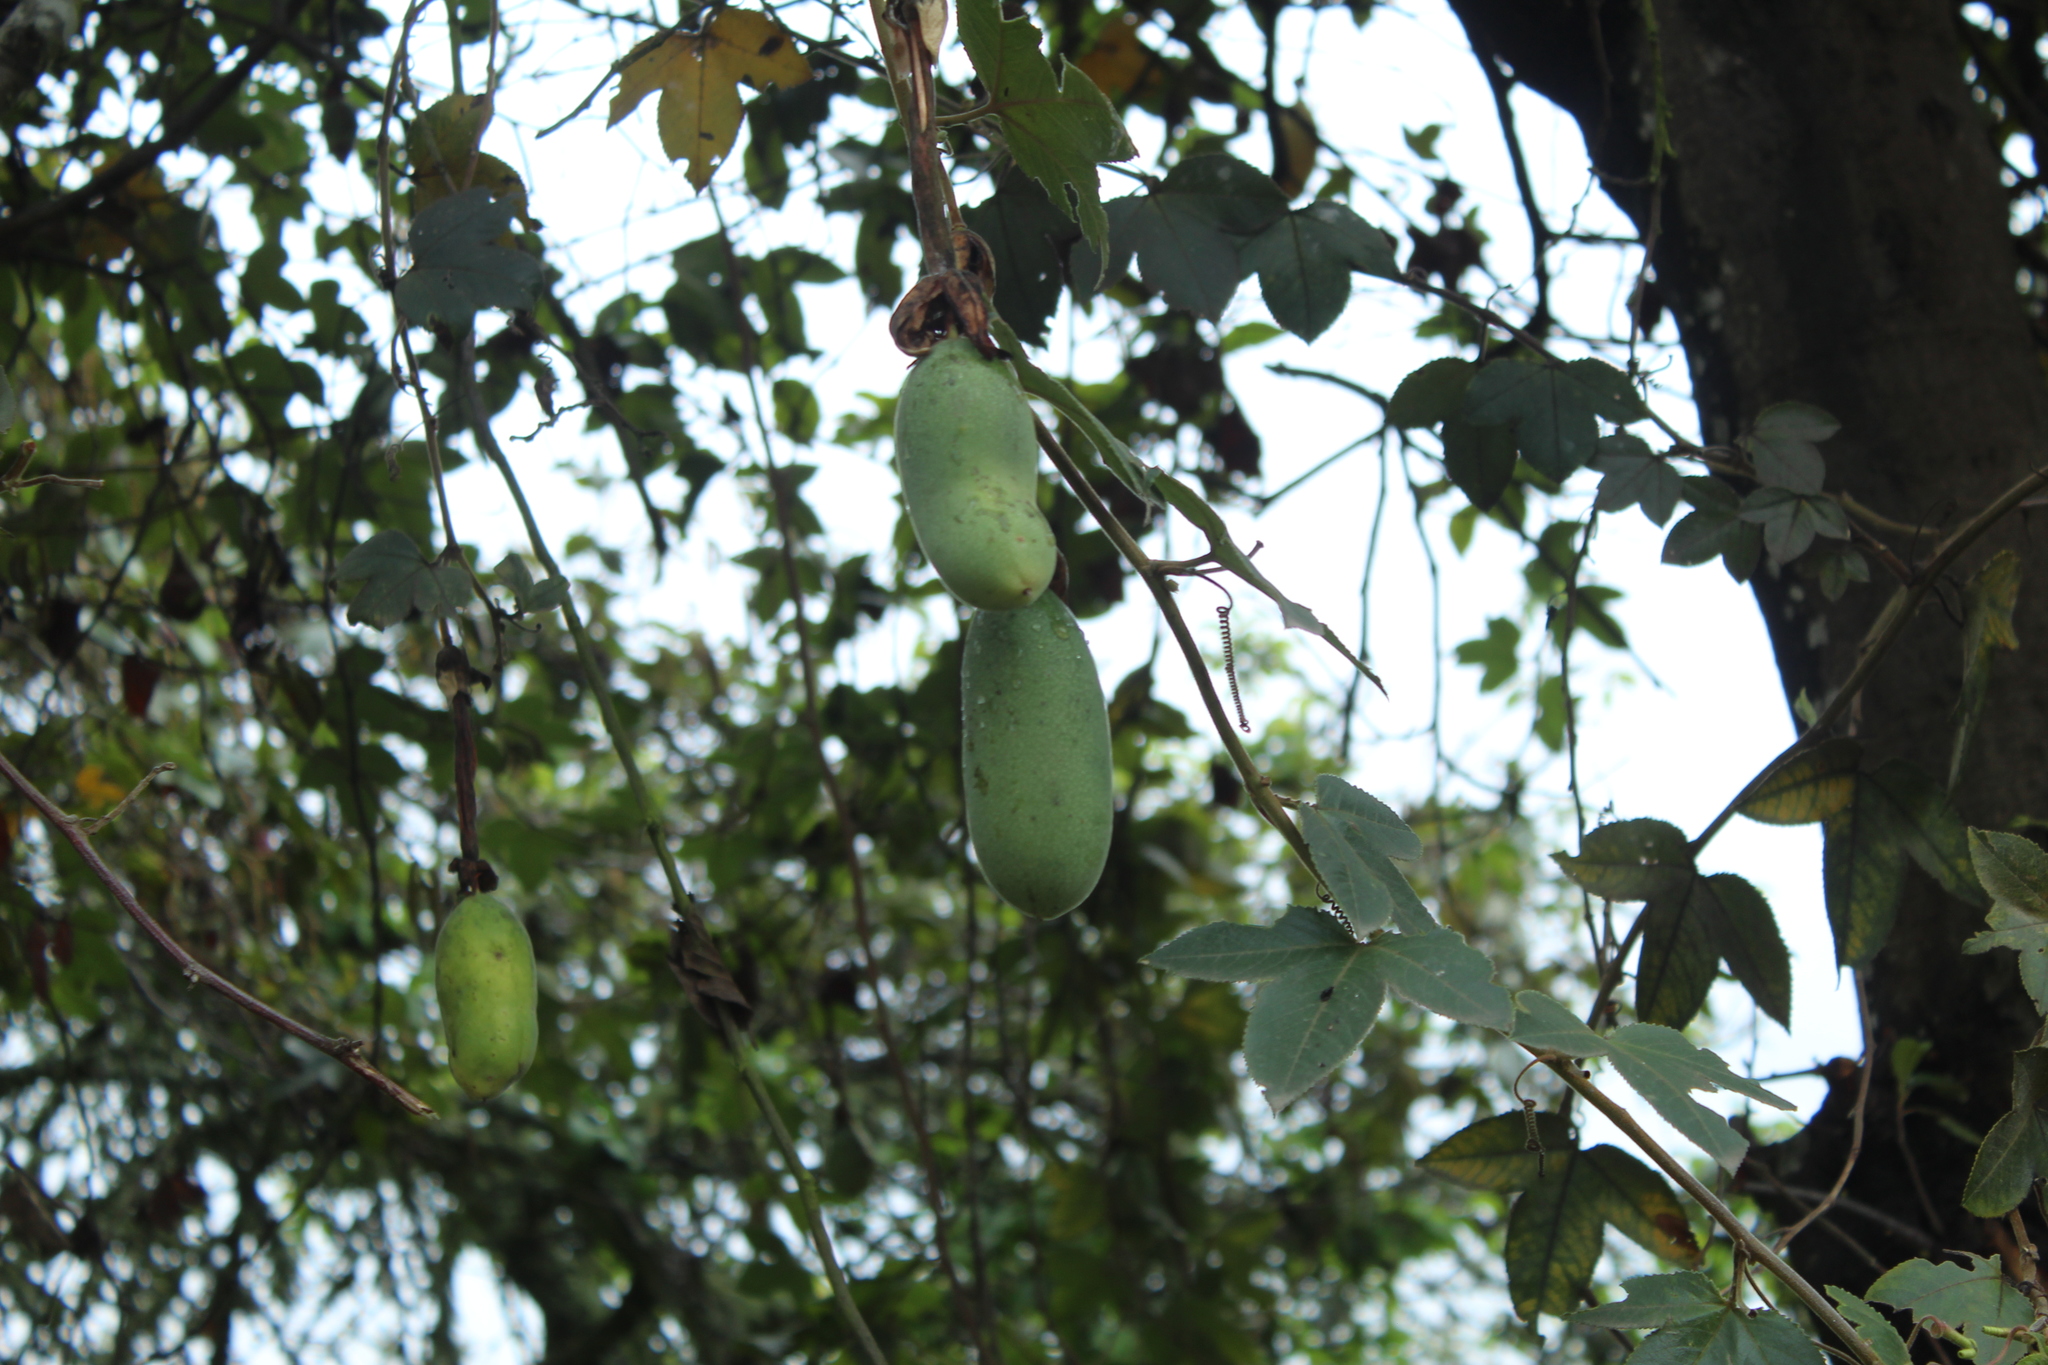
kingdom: Plantae
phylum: Tracheophyta
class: Magnoliopsida
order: Malpighiales
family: Passifloraceae
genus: Passiflora
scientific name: Passiflora tripartita
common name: Banana poka
